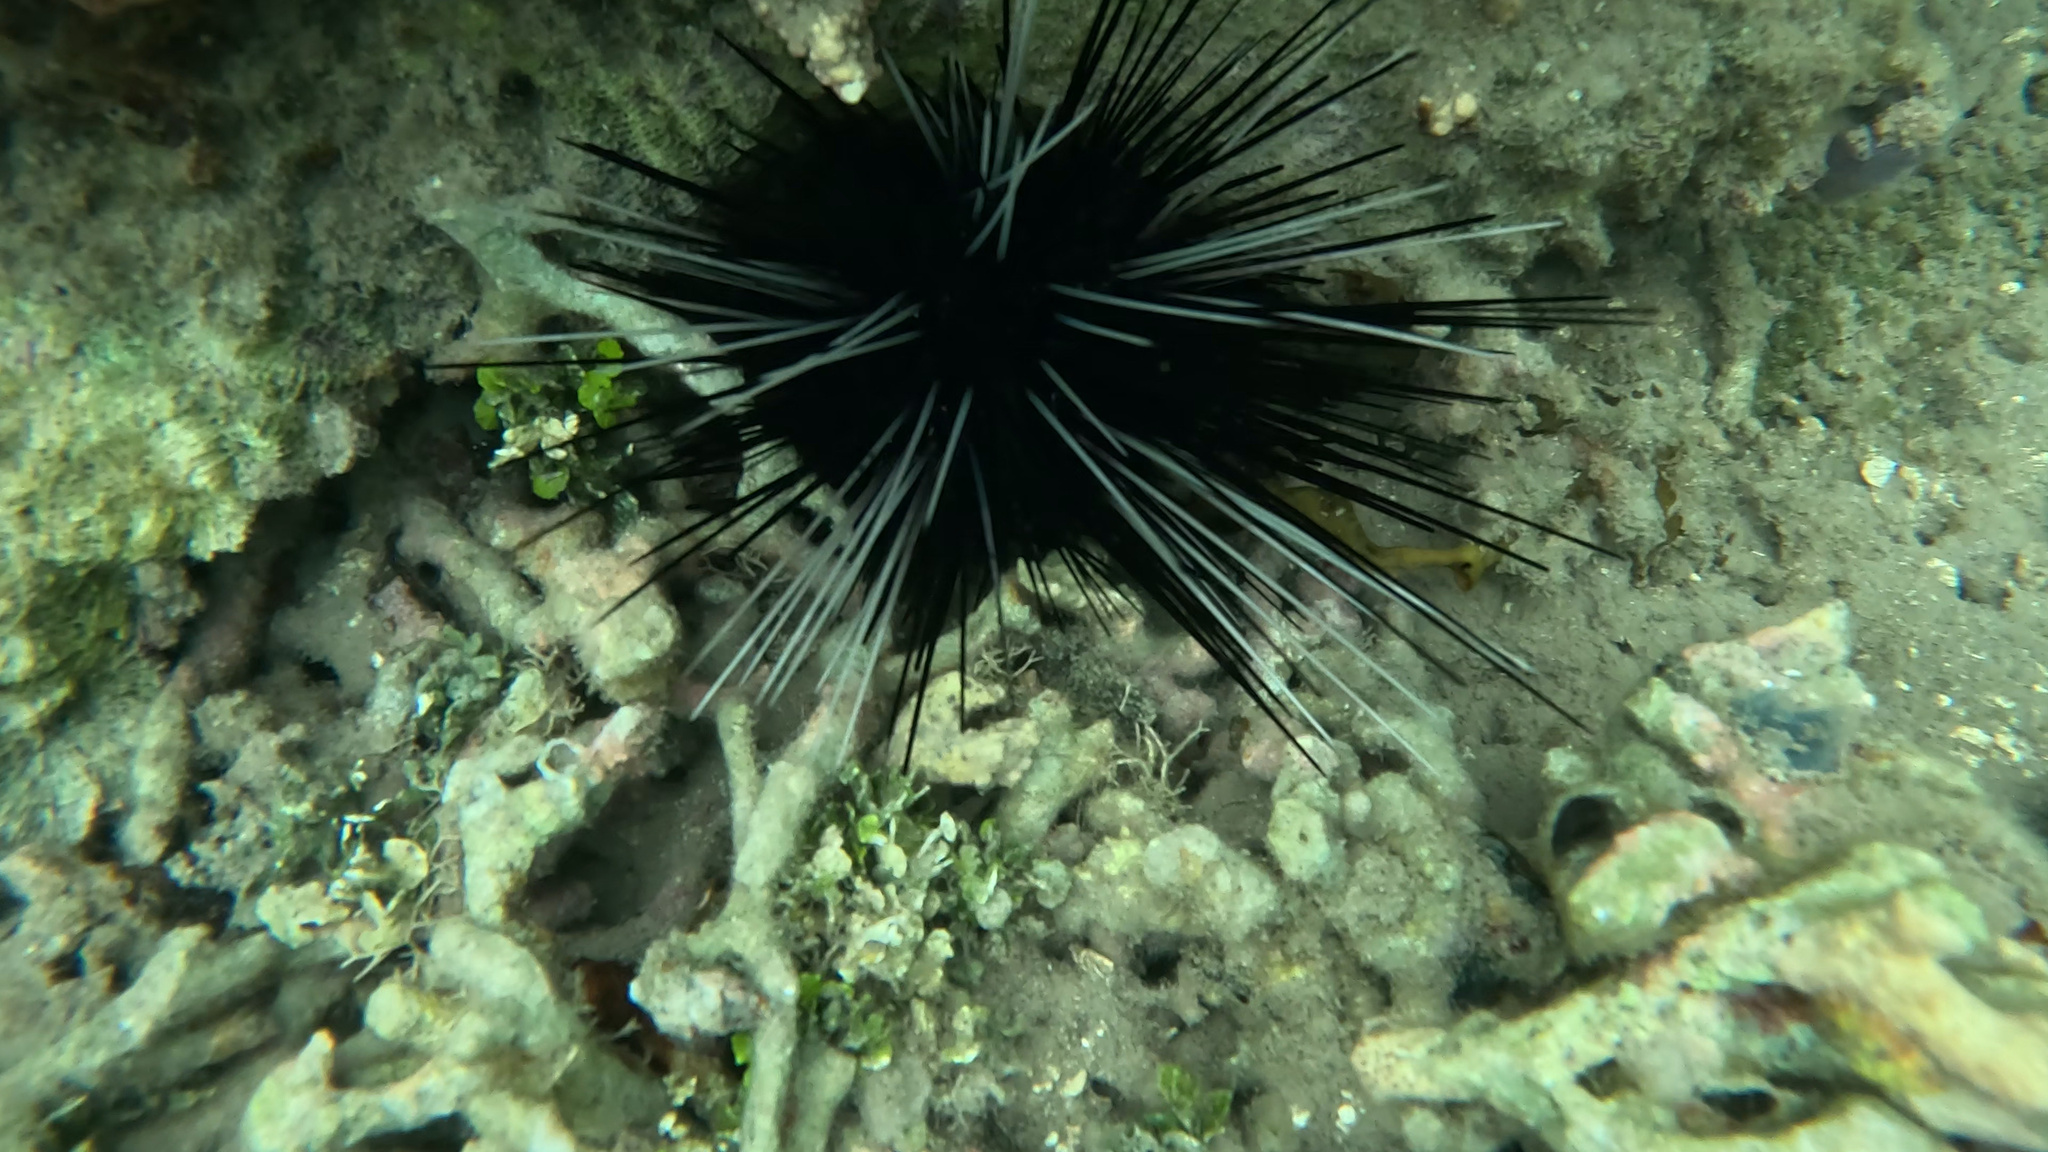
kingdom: Animalia
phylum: Echinodermata
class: Echinoidea
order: Diadematoida
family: Diadematidae
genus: Diadema
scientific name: Diadema antillarum
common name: Spiny urchin
